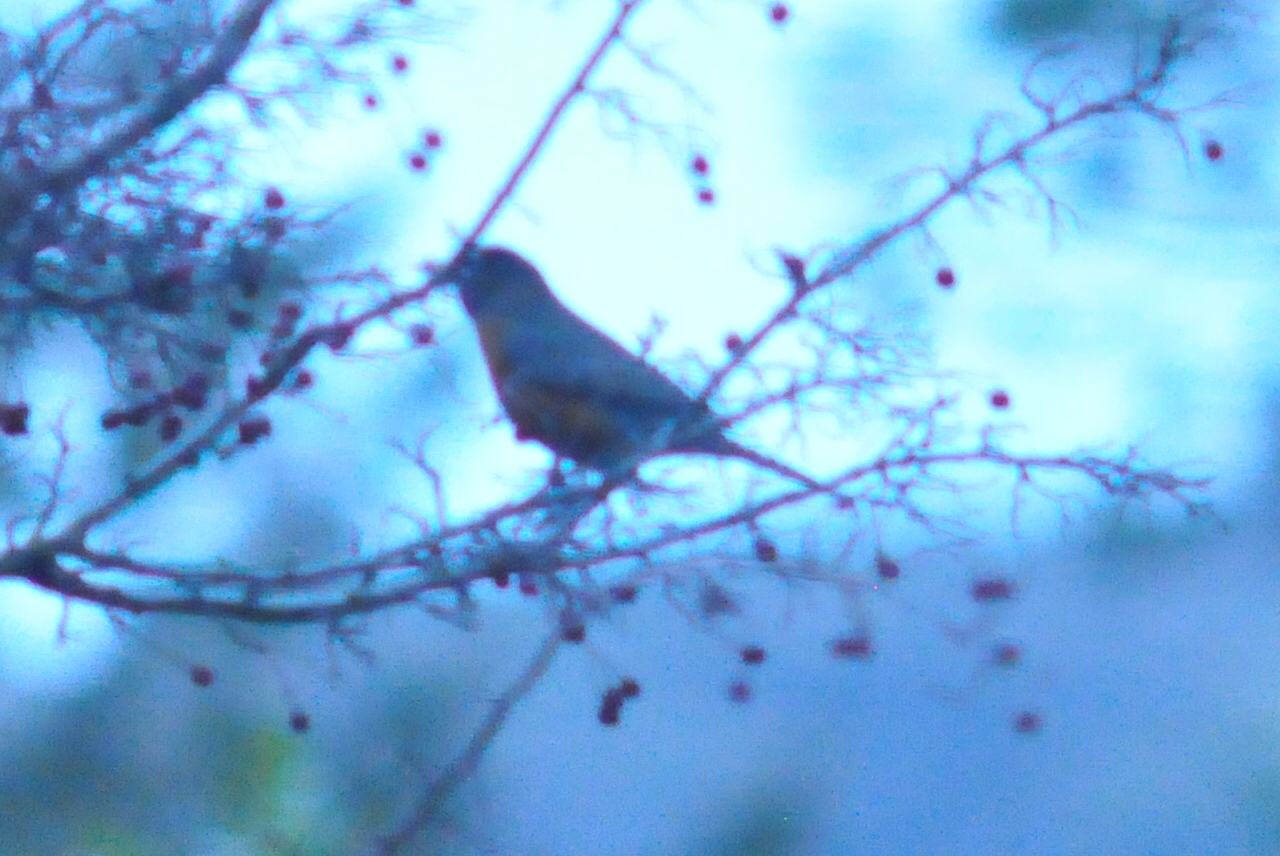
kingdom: Animalia
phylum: Chordata
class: Aves
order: Passeriformes
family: Turdidae
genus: Turdus
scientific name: Turdus migratorius
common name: American robin
